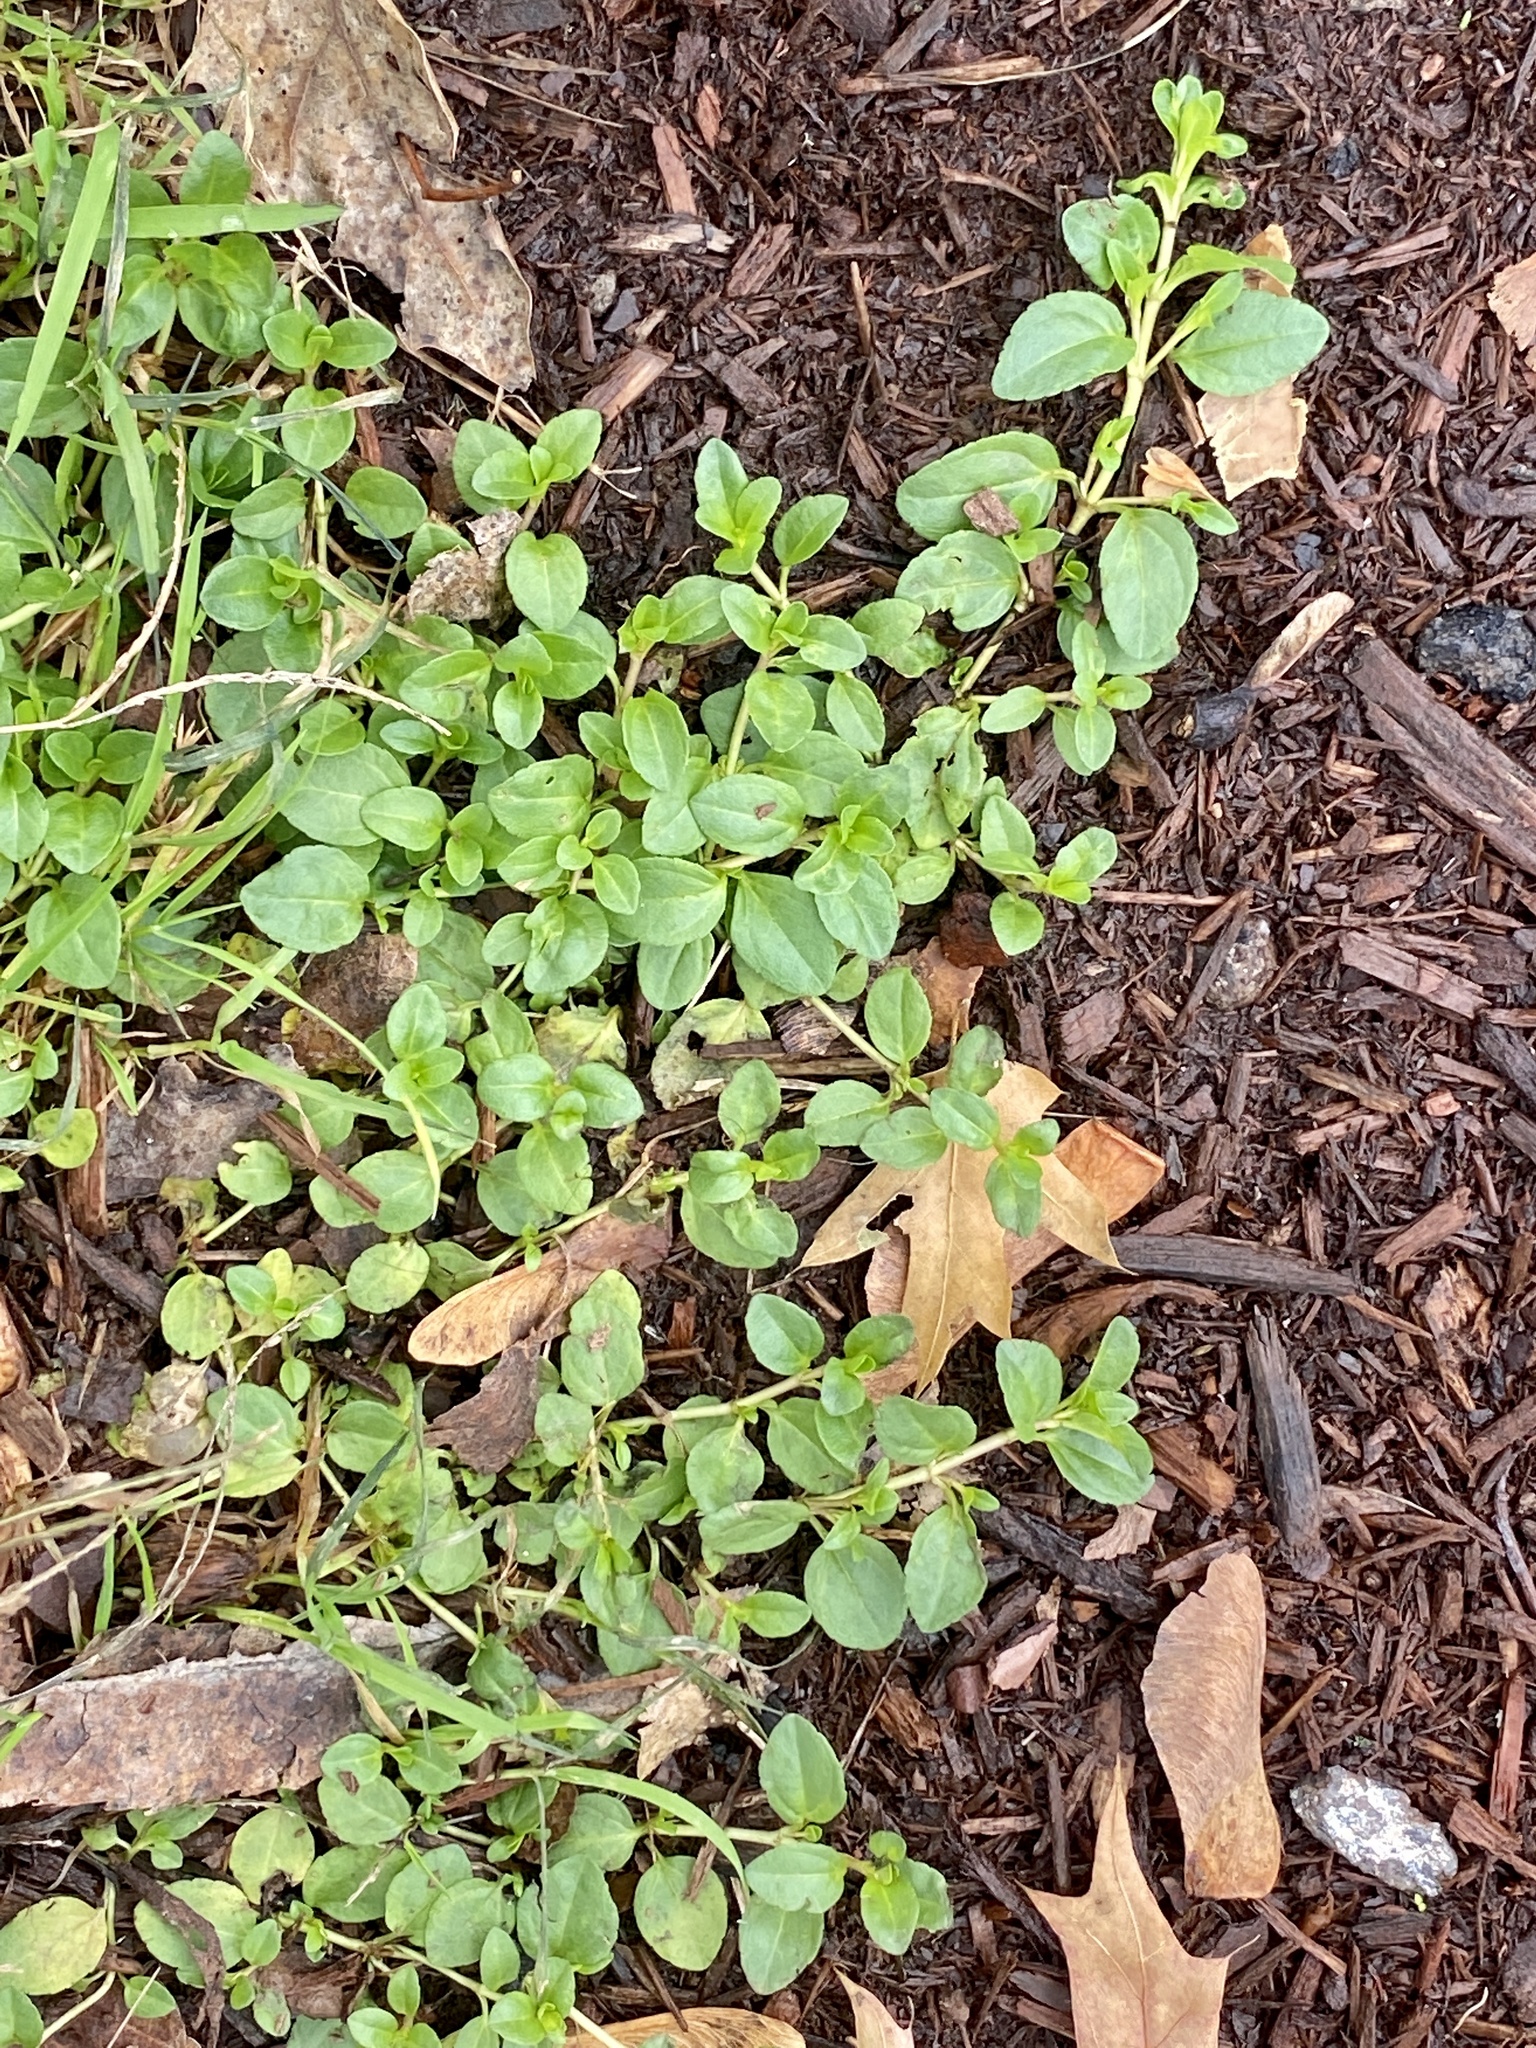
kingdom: Plantae
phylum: Tracheophyta
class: Magnoliopsida
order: Lamiales
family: Plantaginaceae
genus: Veronica
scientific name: Veronica serpyllifolia
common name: Thyme-leaved speedwell
